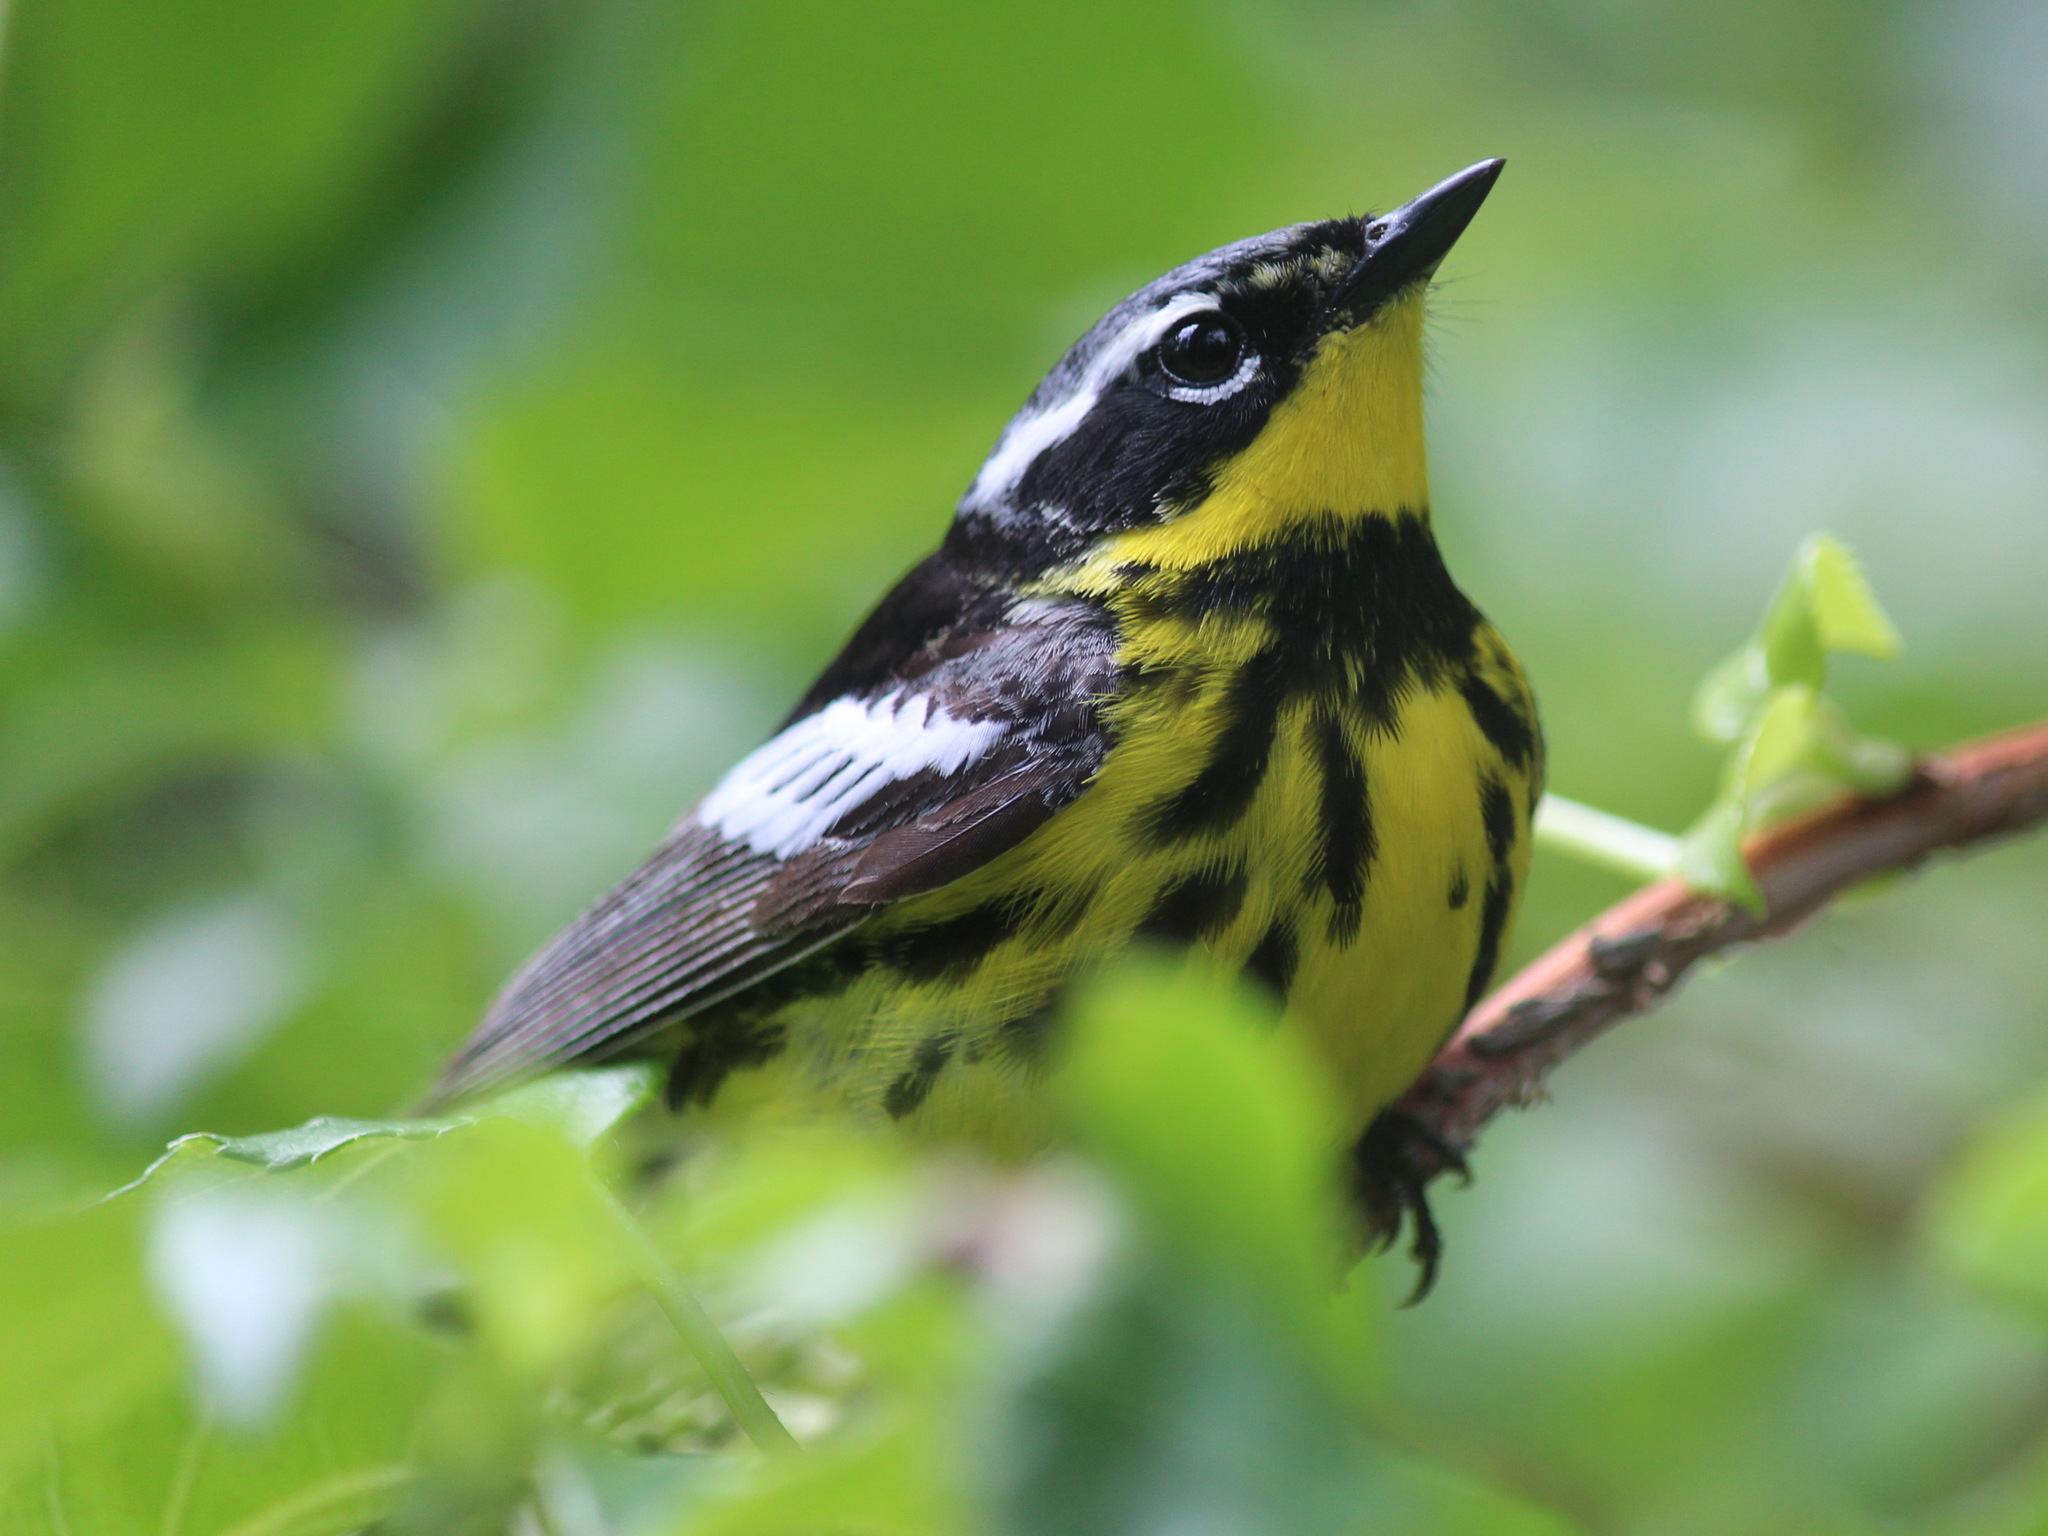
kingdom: Animalia
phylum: Chordata
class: Aves
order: Passeriformes
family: Parulidae
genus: Setophaga
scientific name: Setophaga magnolia
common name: Magnolia warbler
